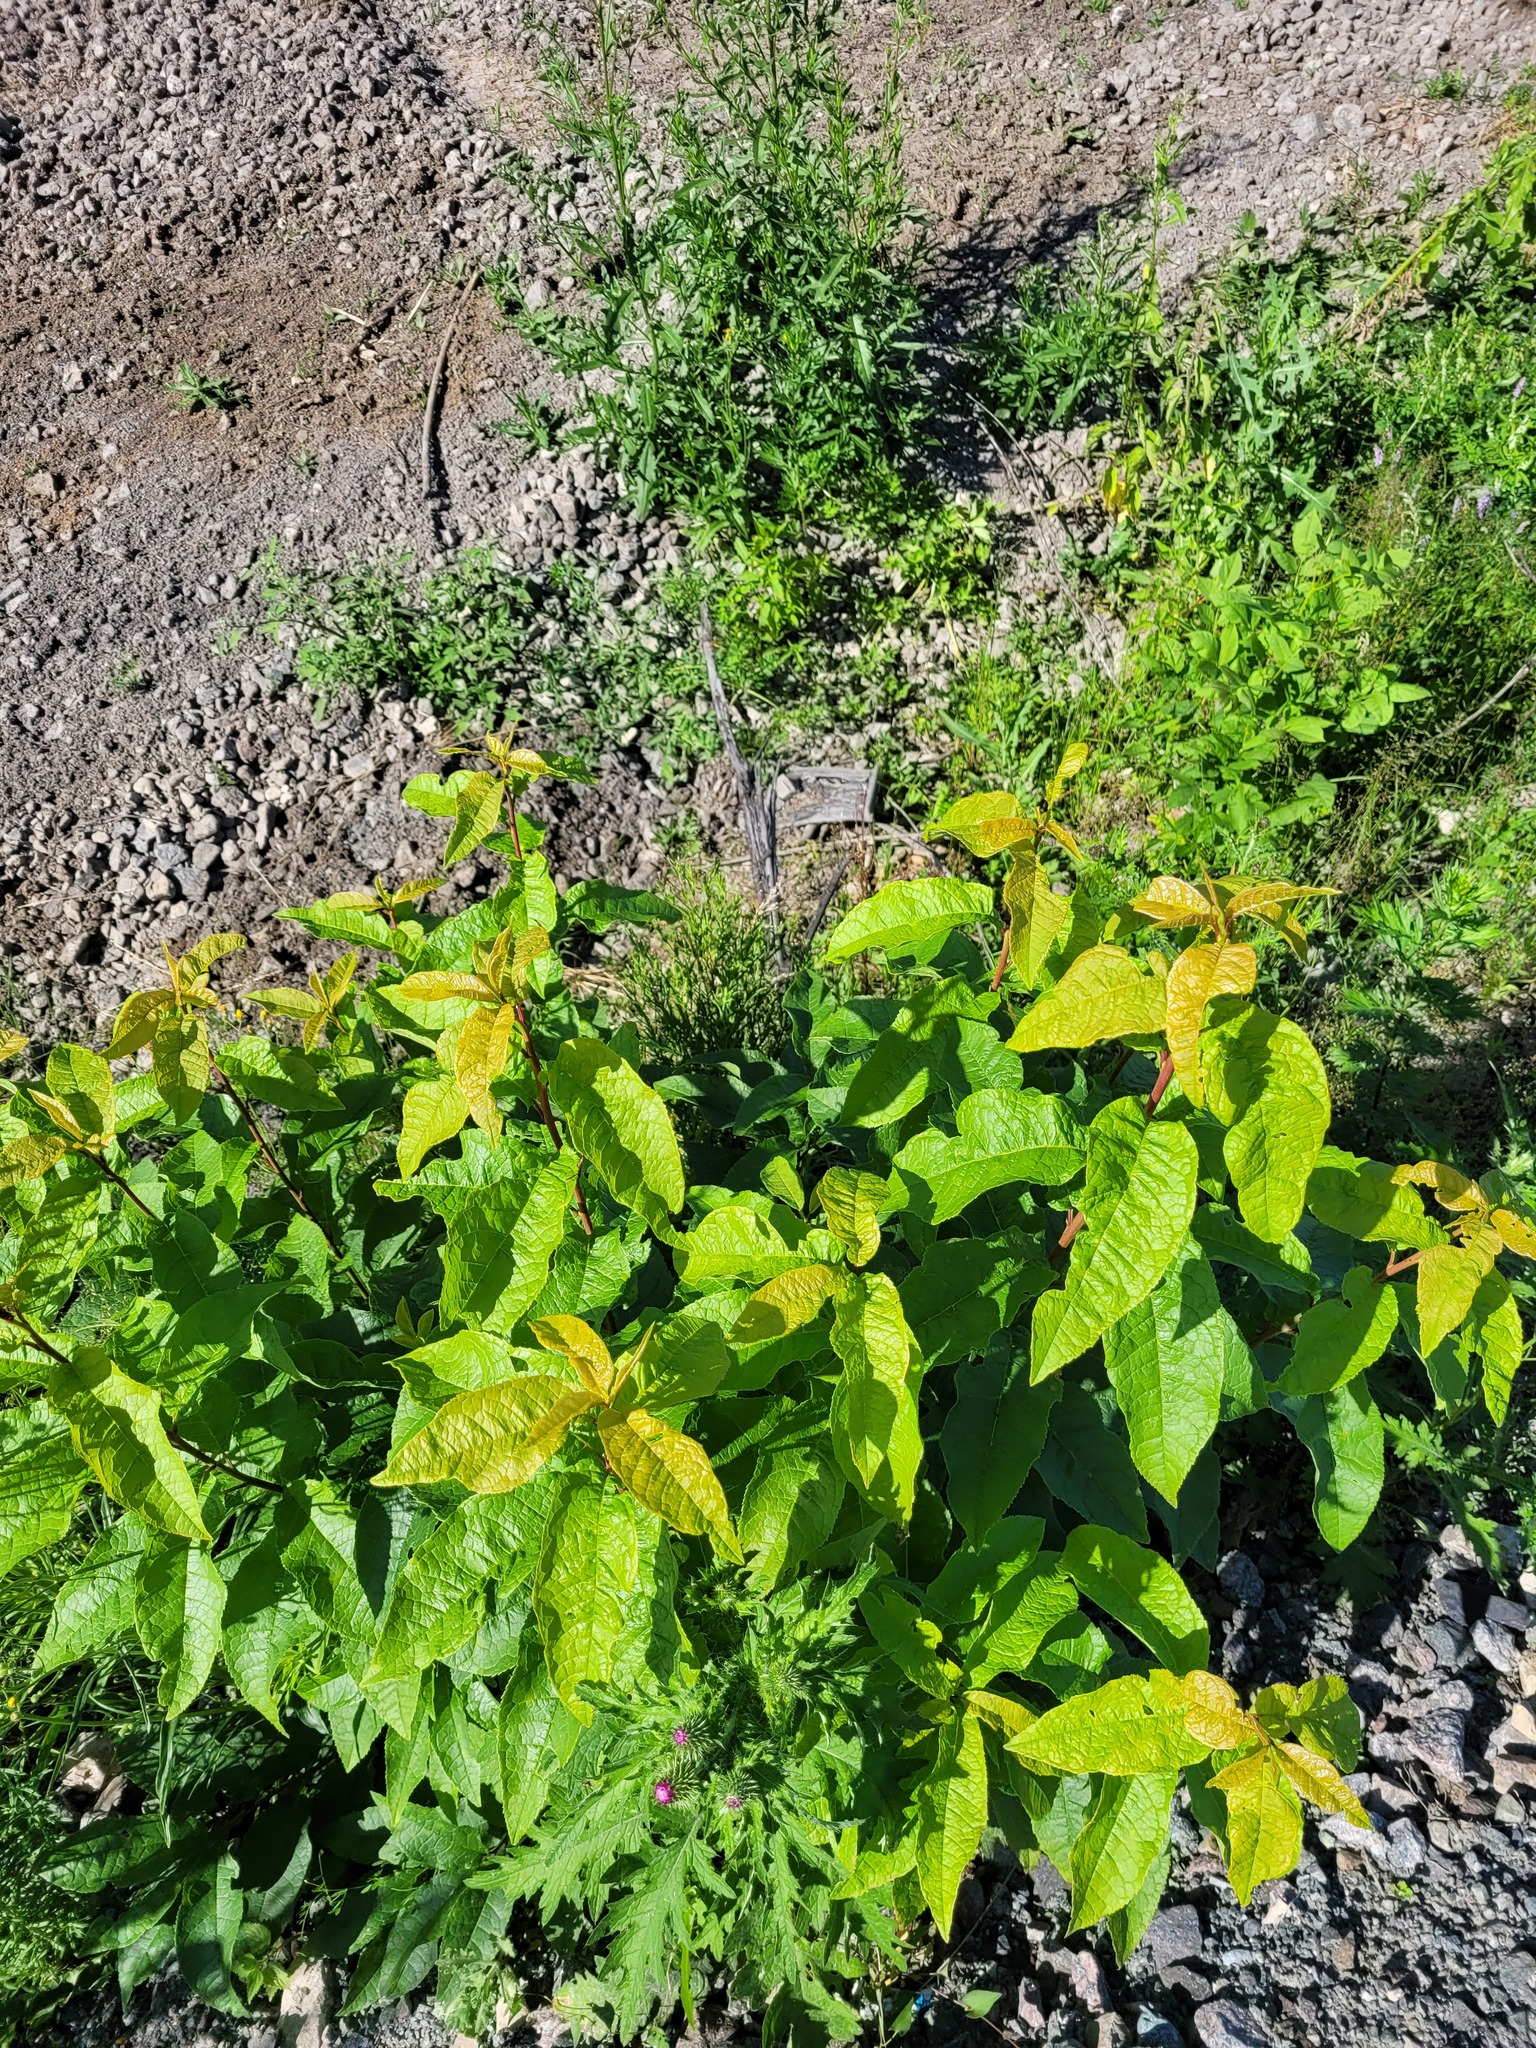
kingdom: Plantae
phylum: Tracheophyta
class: Magnoliopsida
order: Rosales
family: Rosaceae
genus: Prunus
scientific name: Prunus padus
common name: Bird cherry
